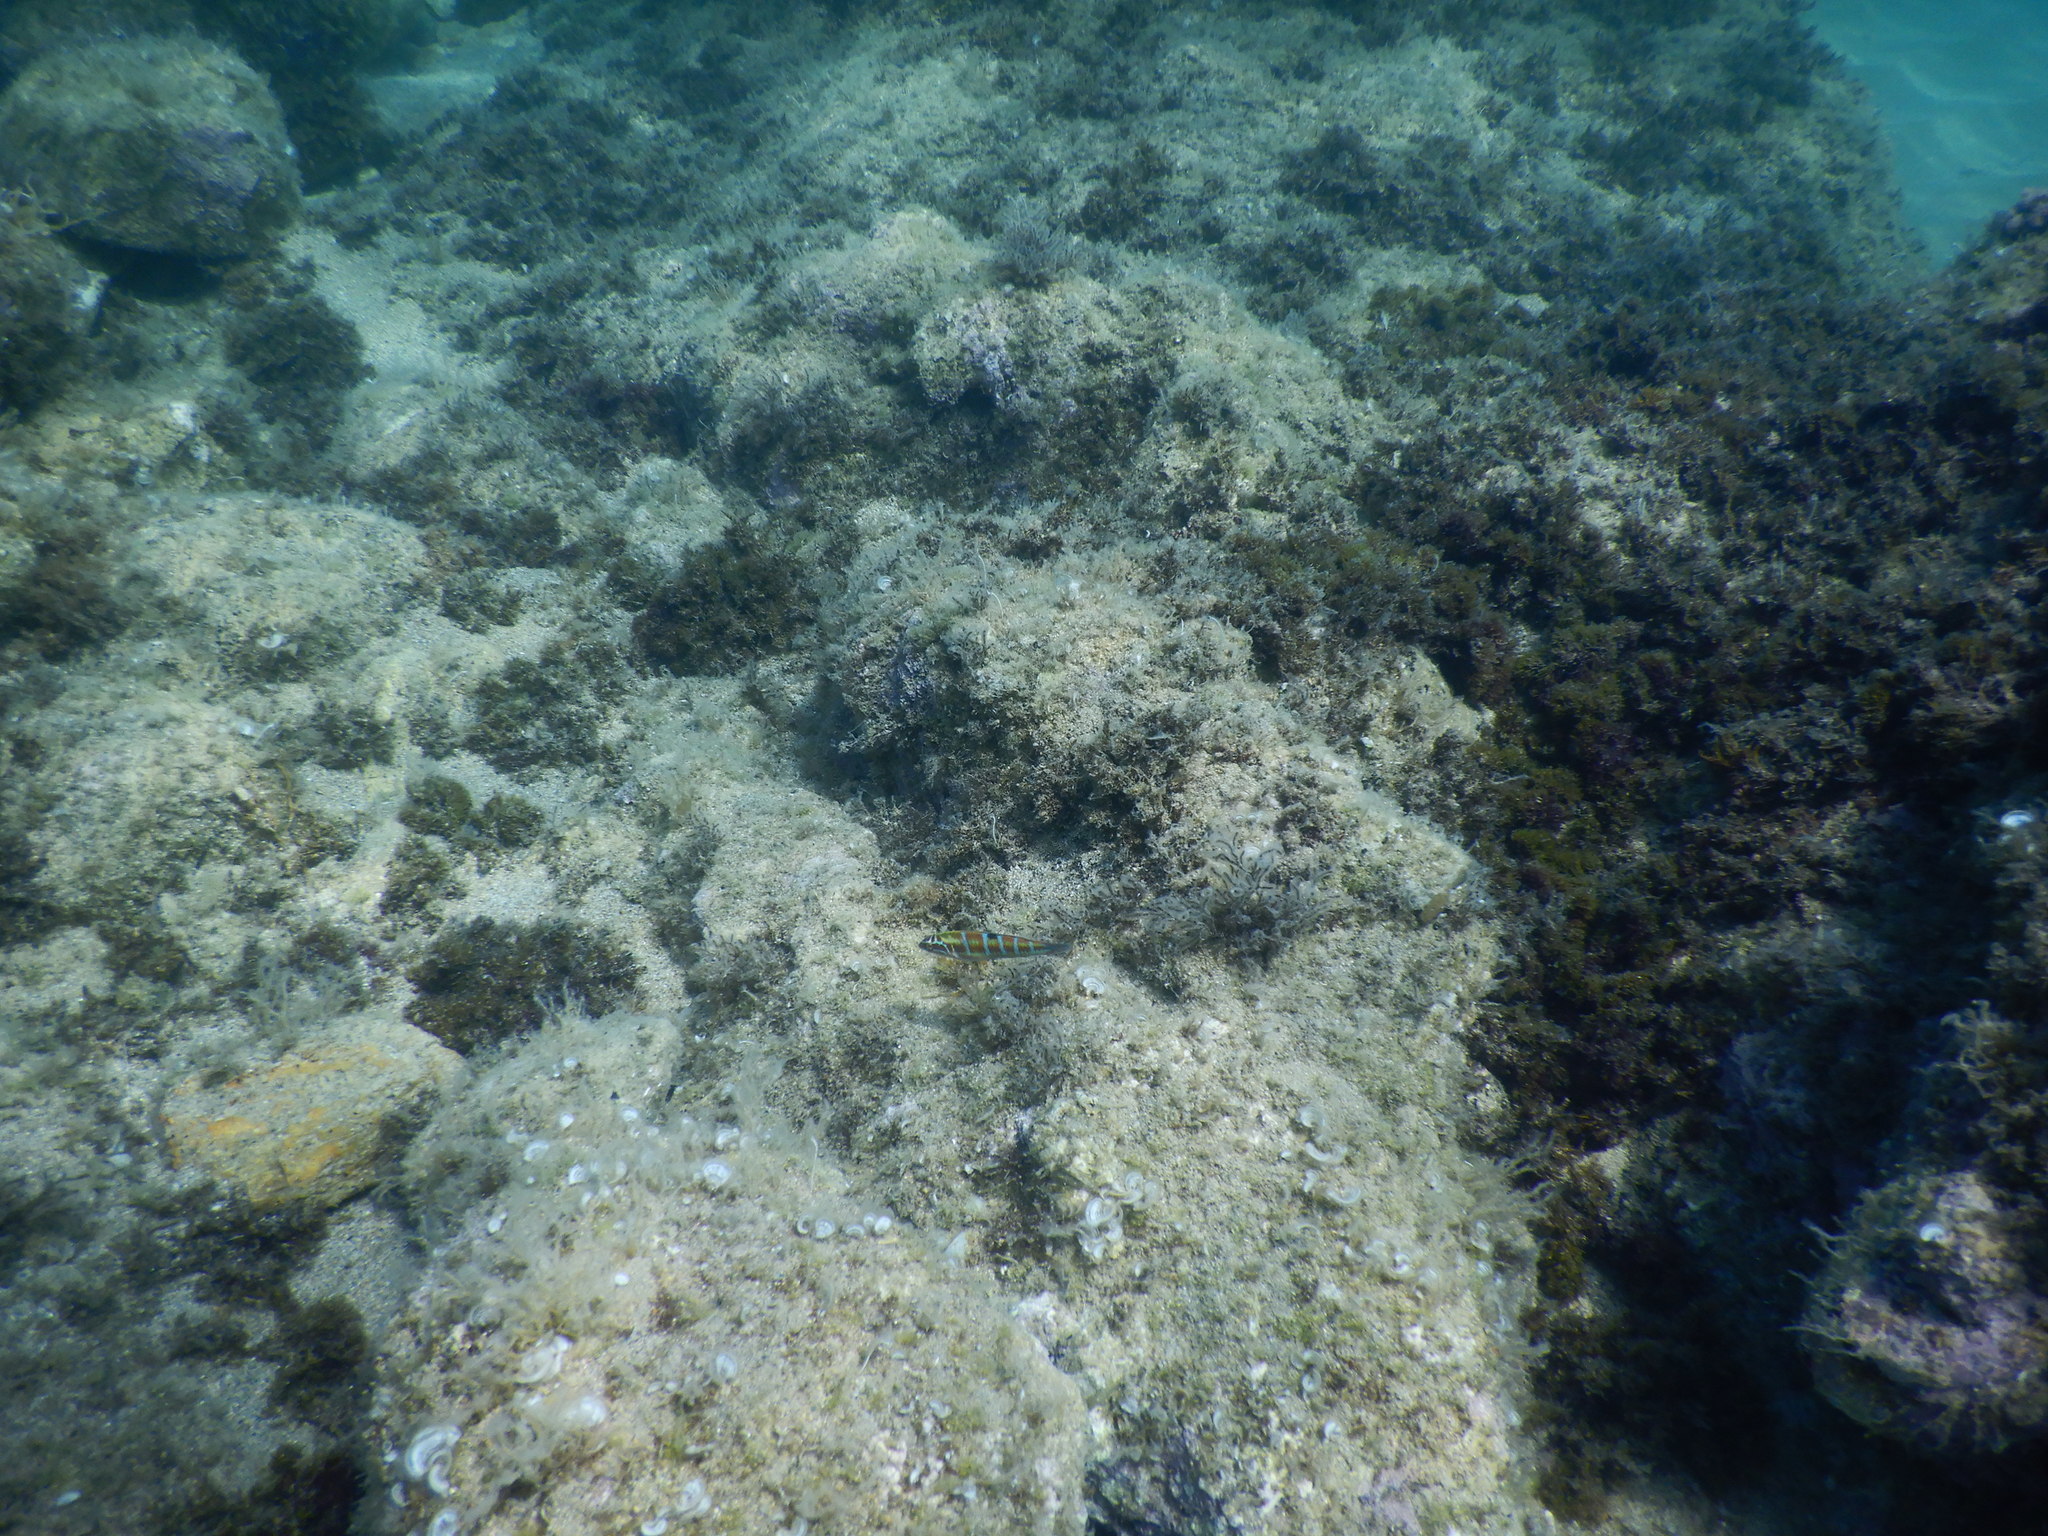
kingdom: Animalia
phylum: Chordata
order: Perciformes
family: Labridae
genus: Thalassoma
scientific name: Thalassoma pavo
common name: Ornate wrasse
